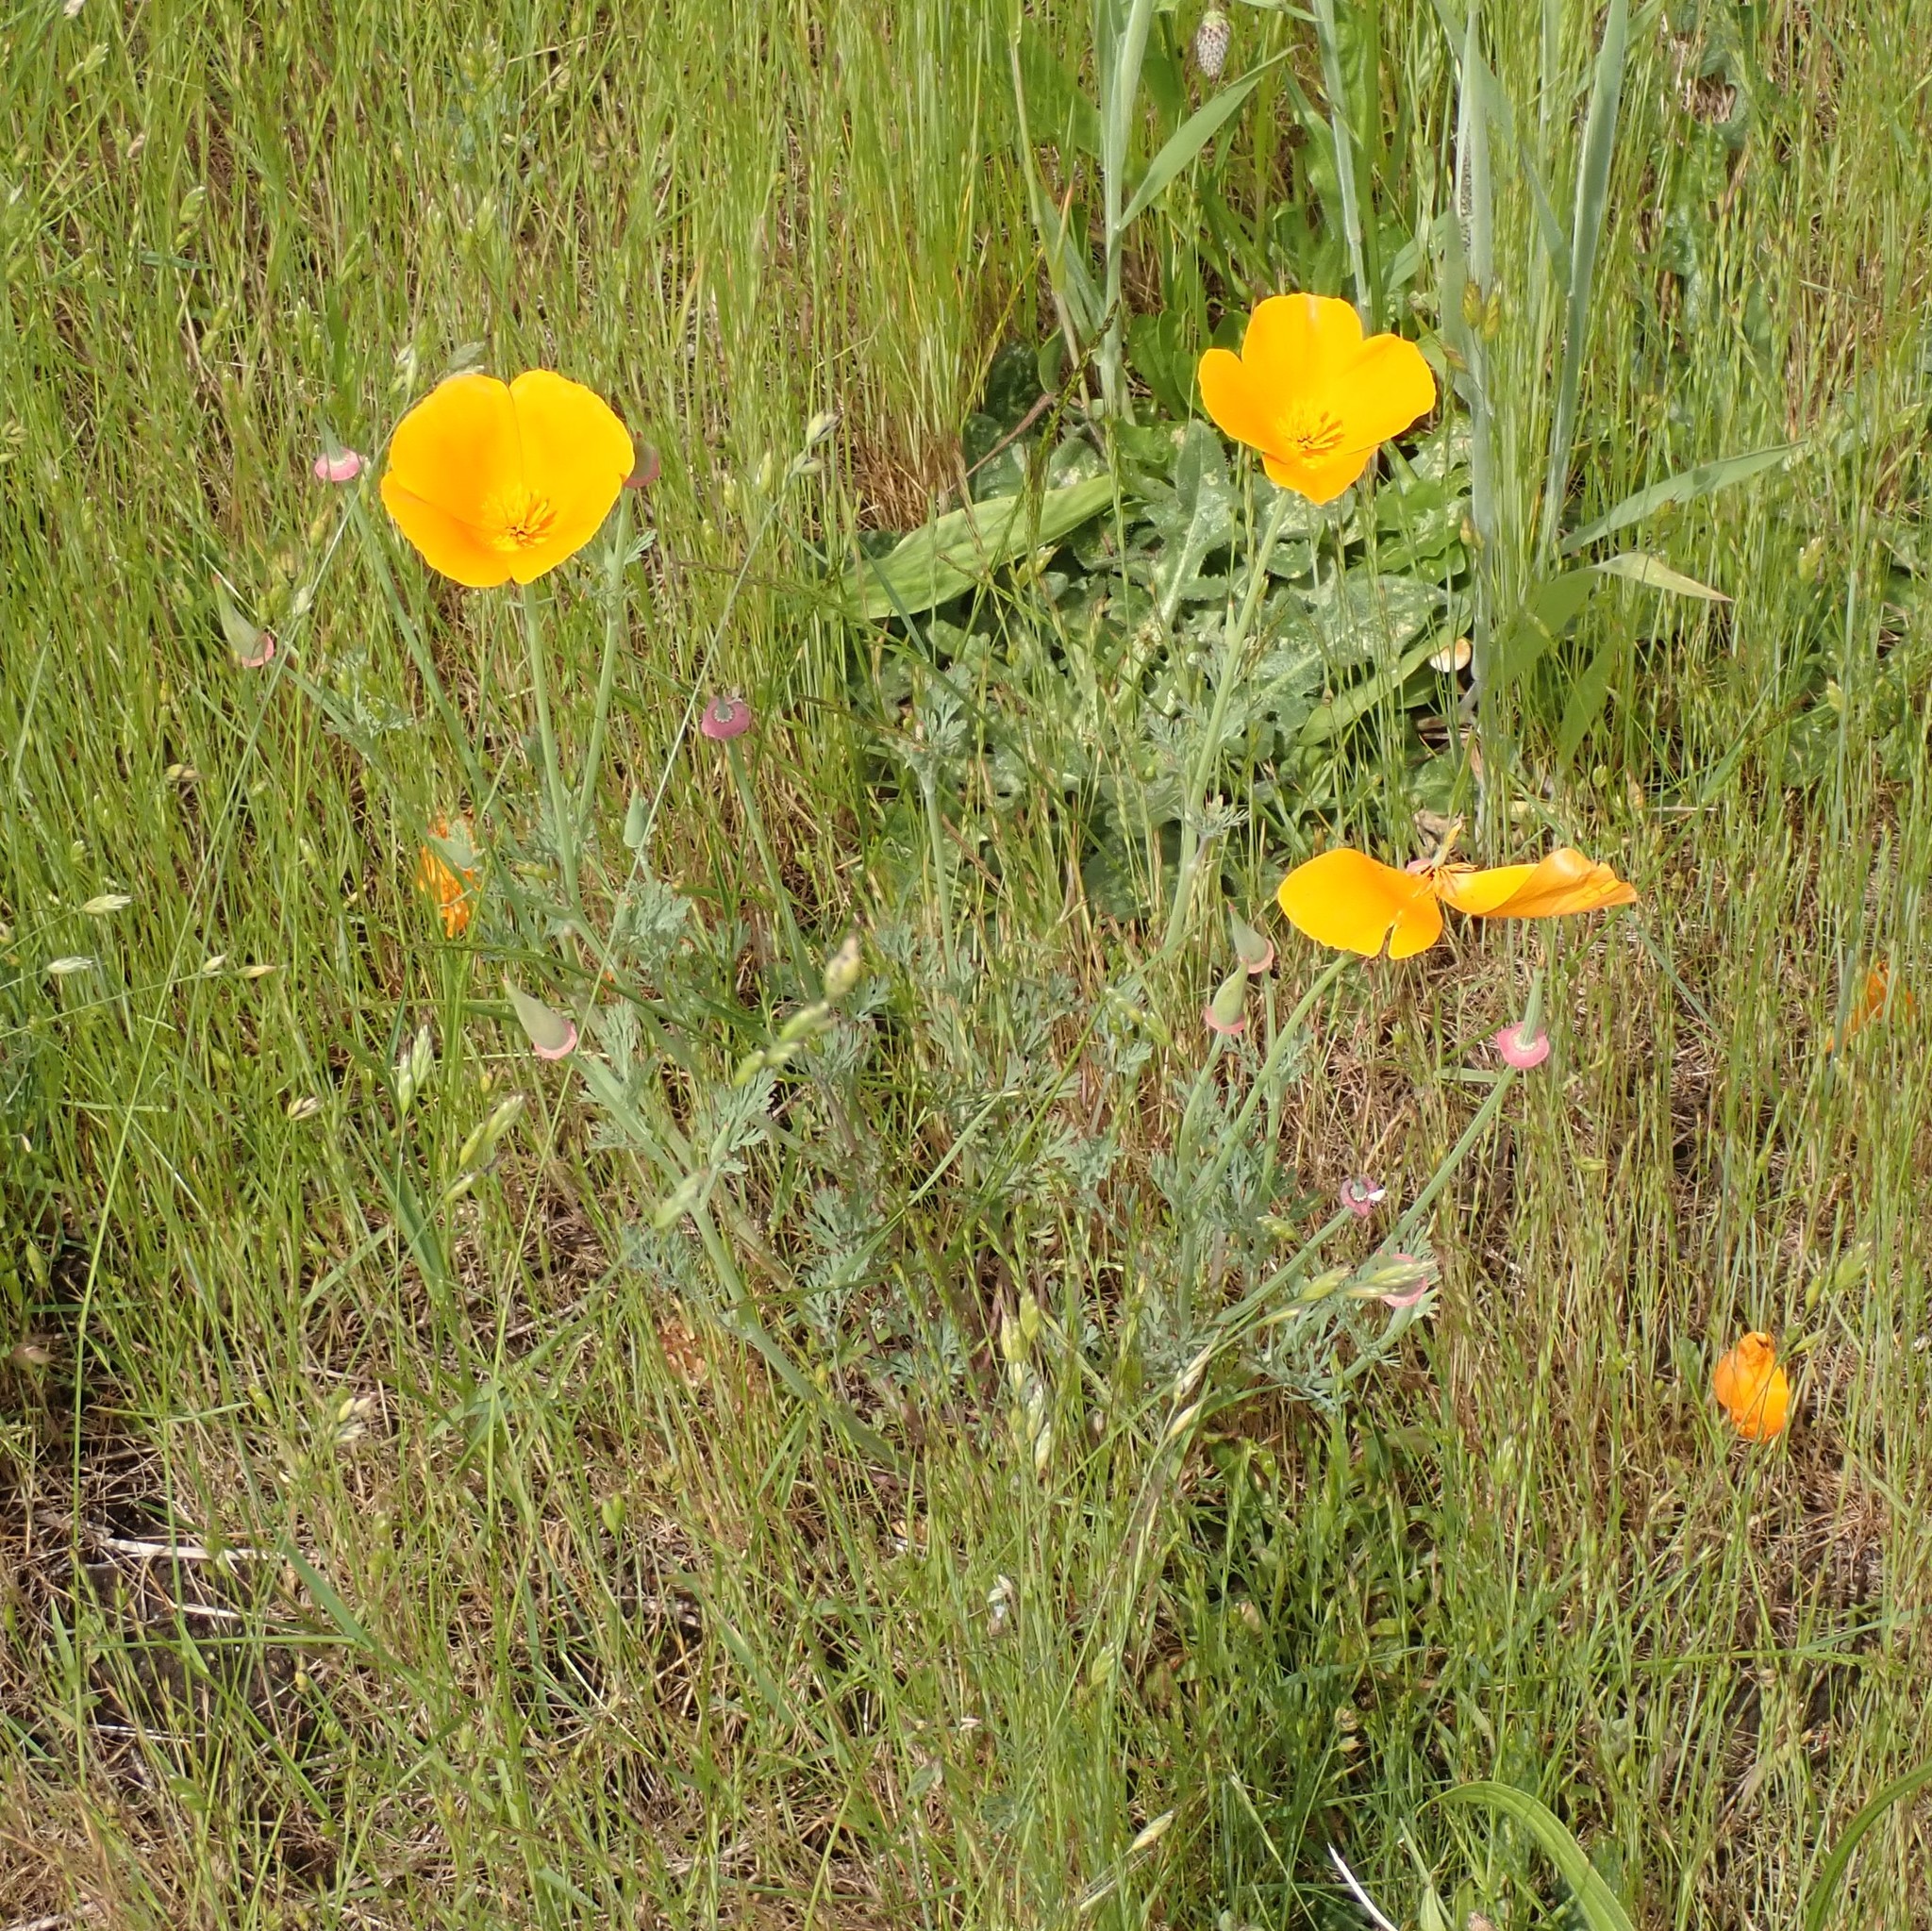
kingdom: Plantae
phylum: Tracheophyta
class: Magnoliopsida
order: Ranunculales
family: Papaveraceae
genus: Eschscholzia
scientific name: Eschscholzia californica
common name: California poppy
